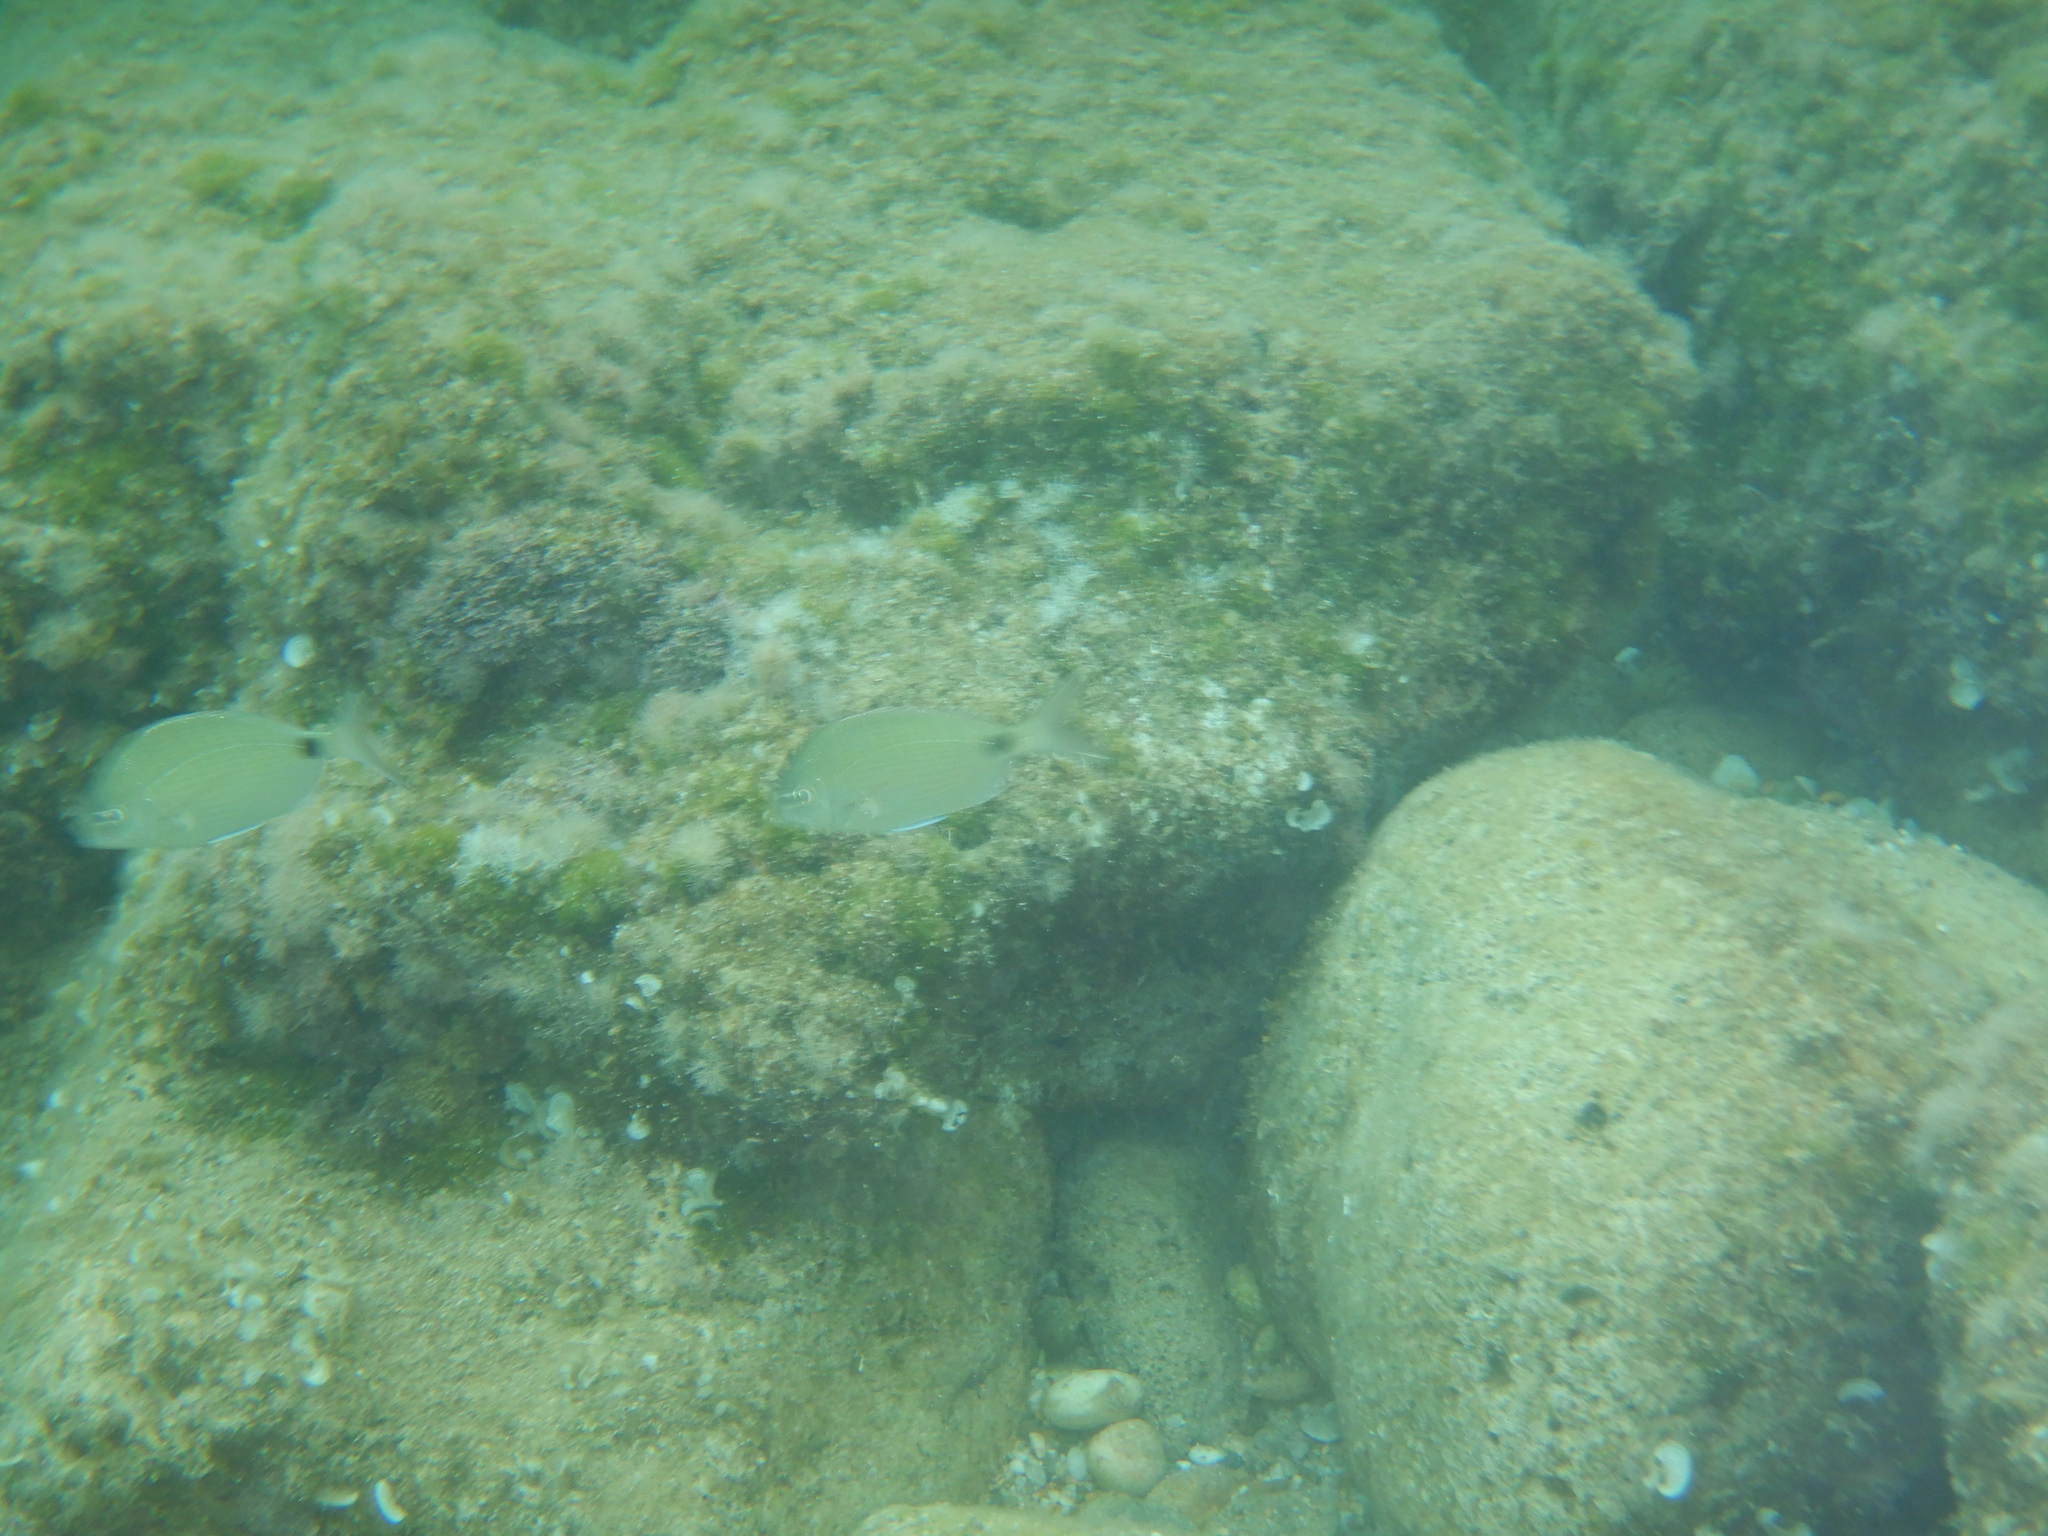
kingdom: Animalia
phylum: Chordata
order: Perciformes
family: Sparidae
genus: Diplodus
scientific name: Diplodus sargus
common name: White seabream
